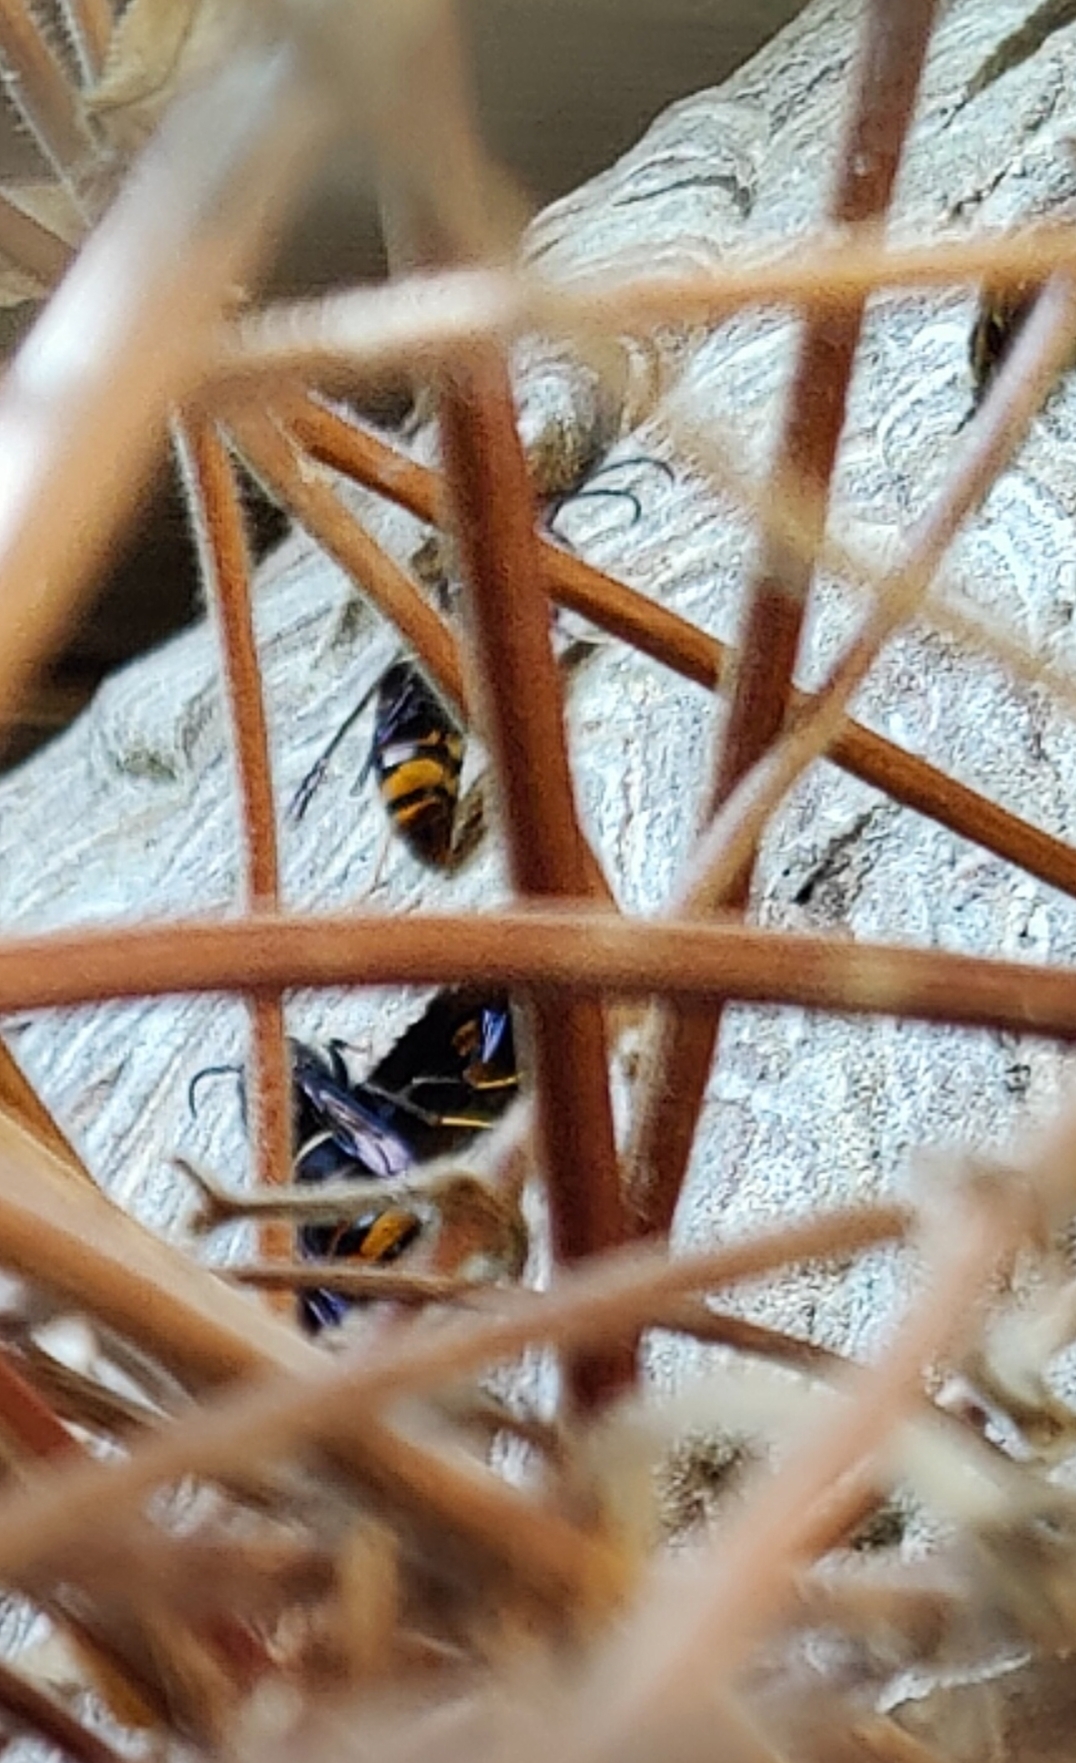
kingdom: Animalia
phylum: Arthropoda
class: Insecta
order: Hymenoptera
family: Vespidae
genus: Vespa
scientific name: Vespa velutina
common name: Asian hornet
